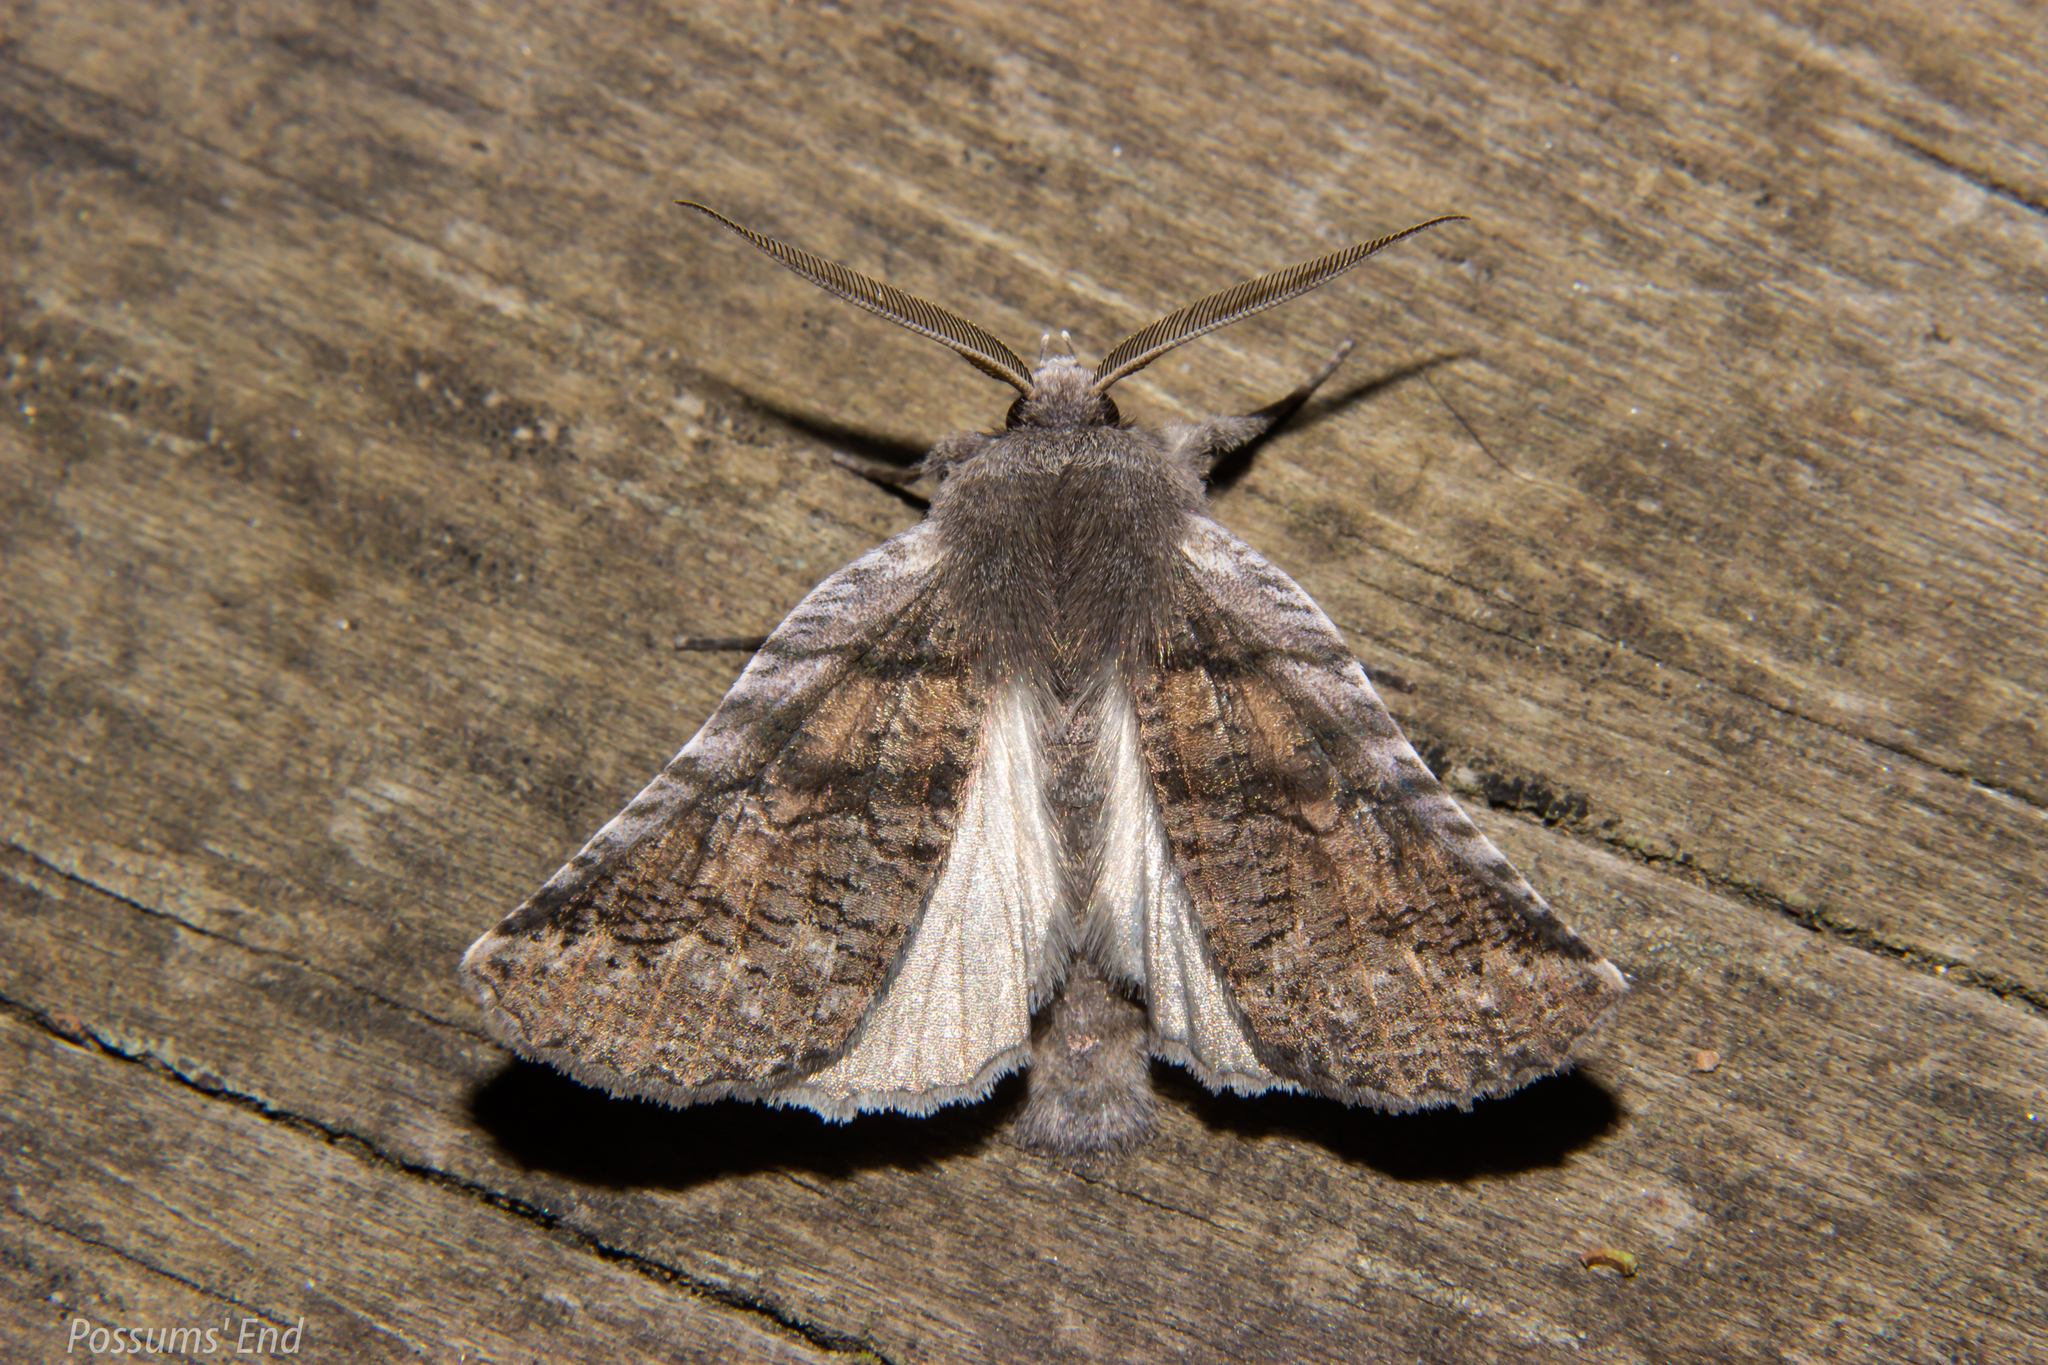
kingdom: Animalia
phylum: Arthropoda
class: Insecta
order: Lepidoptera
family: Geometridae
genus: Declana
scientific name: Declana
